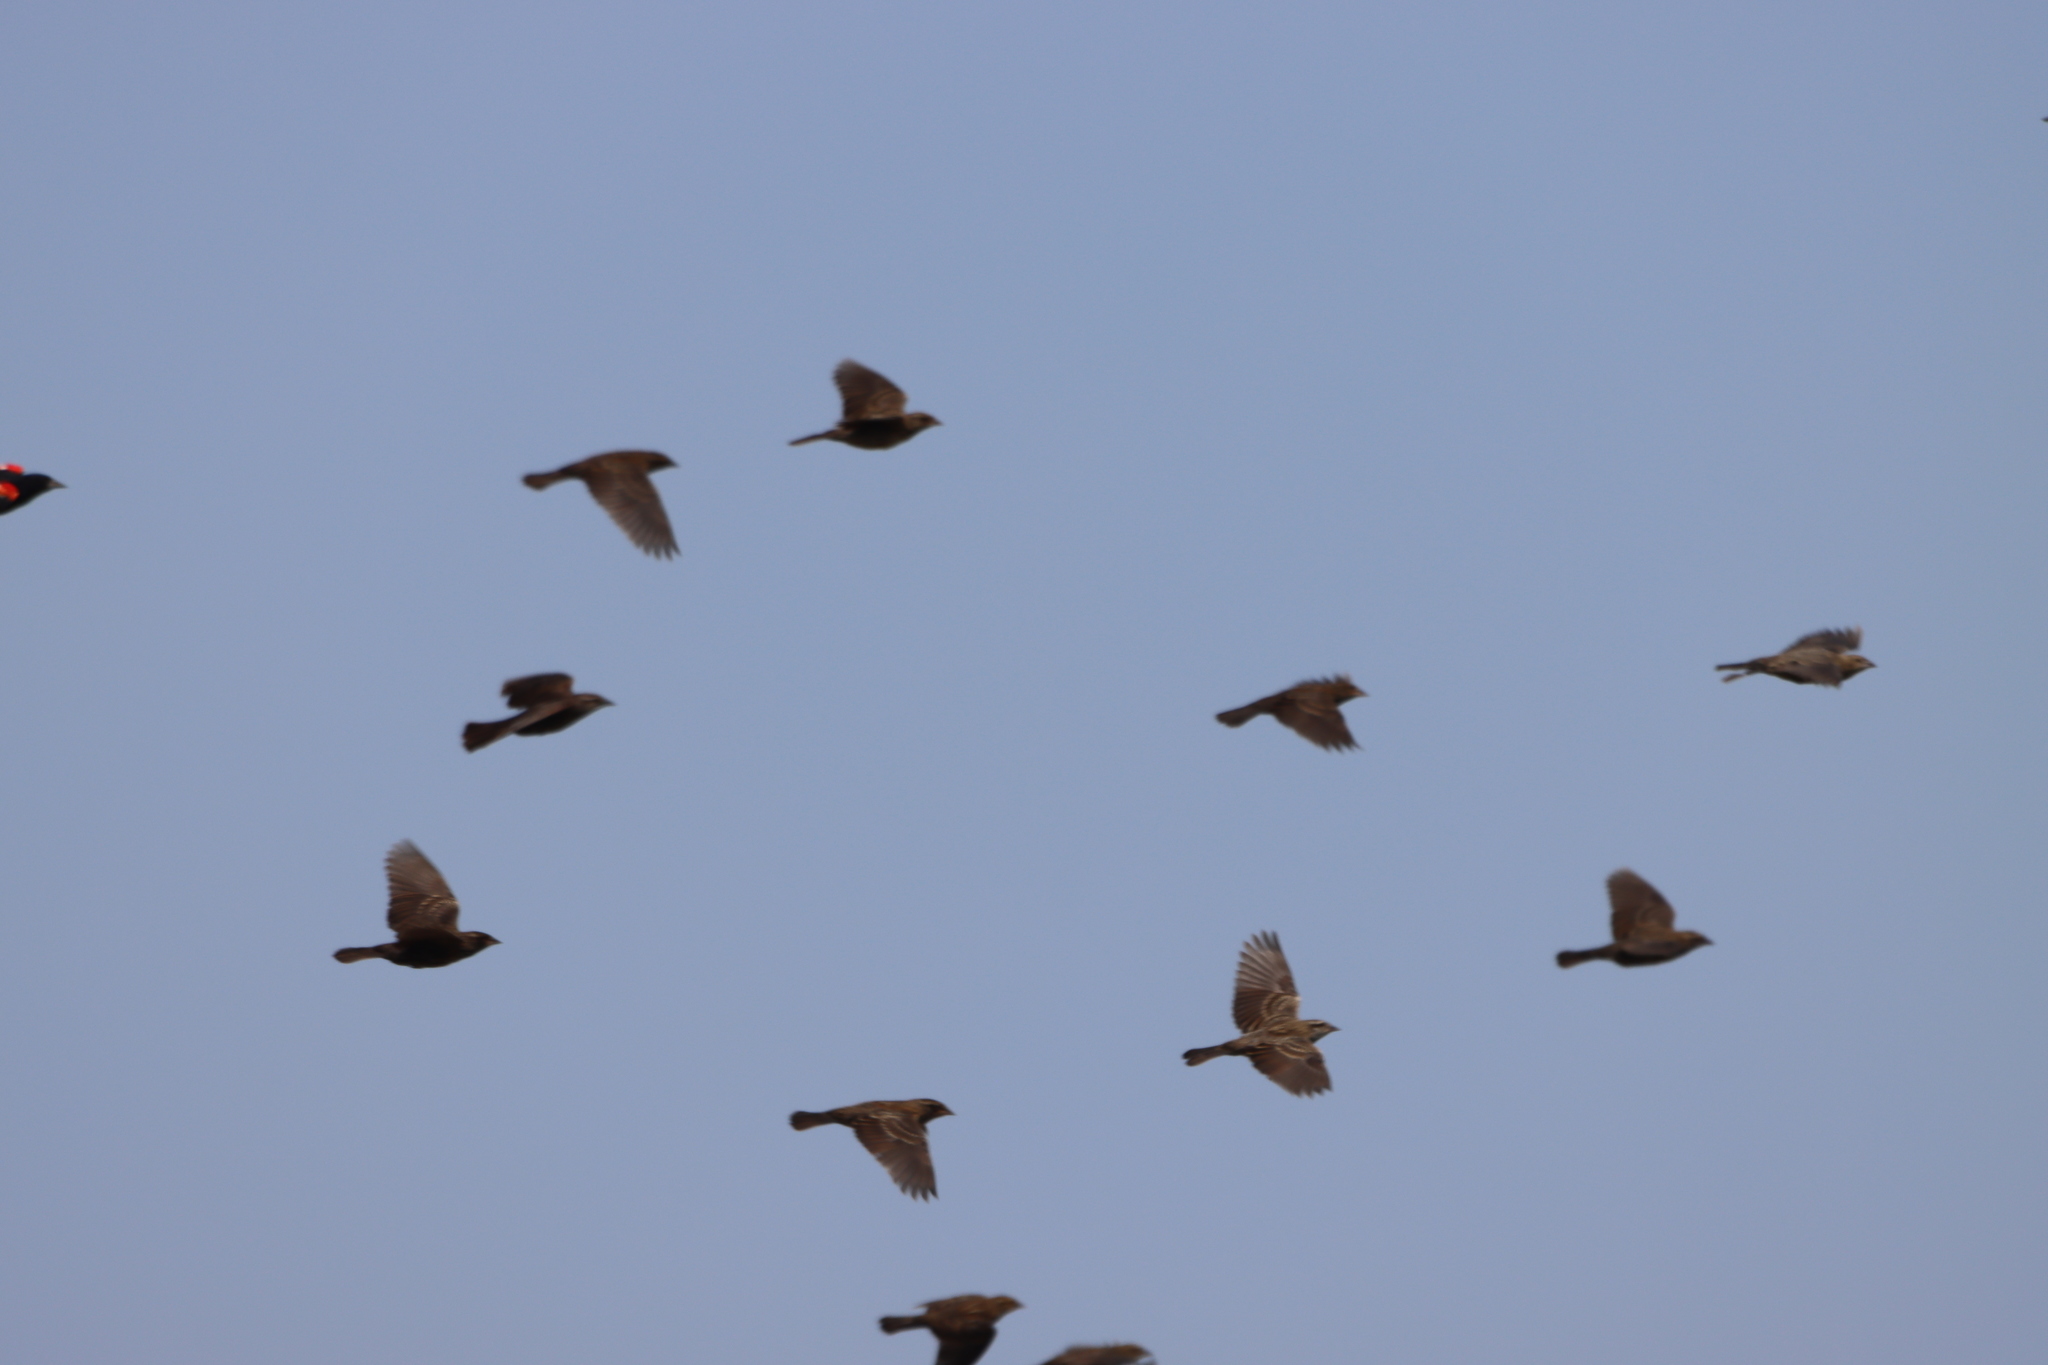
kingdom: Animalia
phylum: Chordata
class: Aves
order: Passeriformes
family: Icteridae
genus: Agelaius
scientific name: Agelaius phoeniceus
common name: Red-winged blackbird
